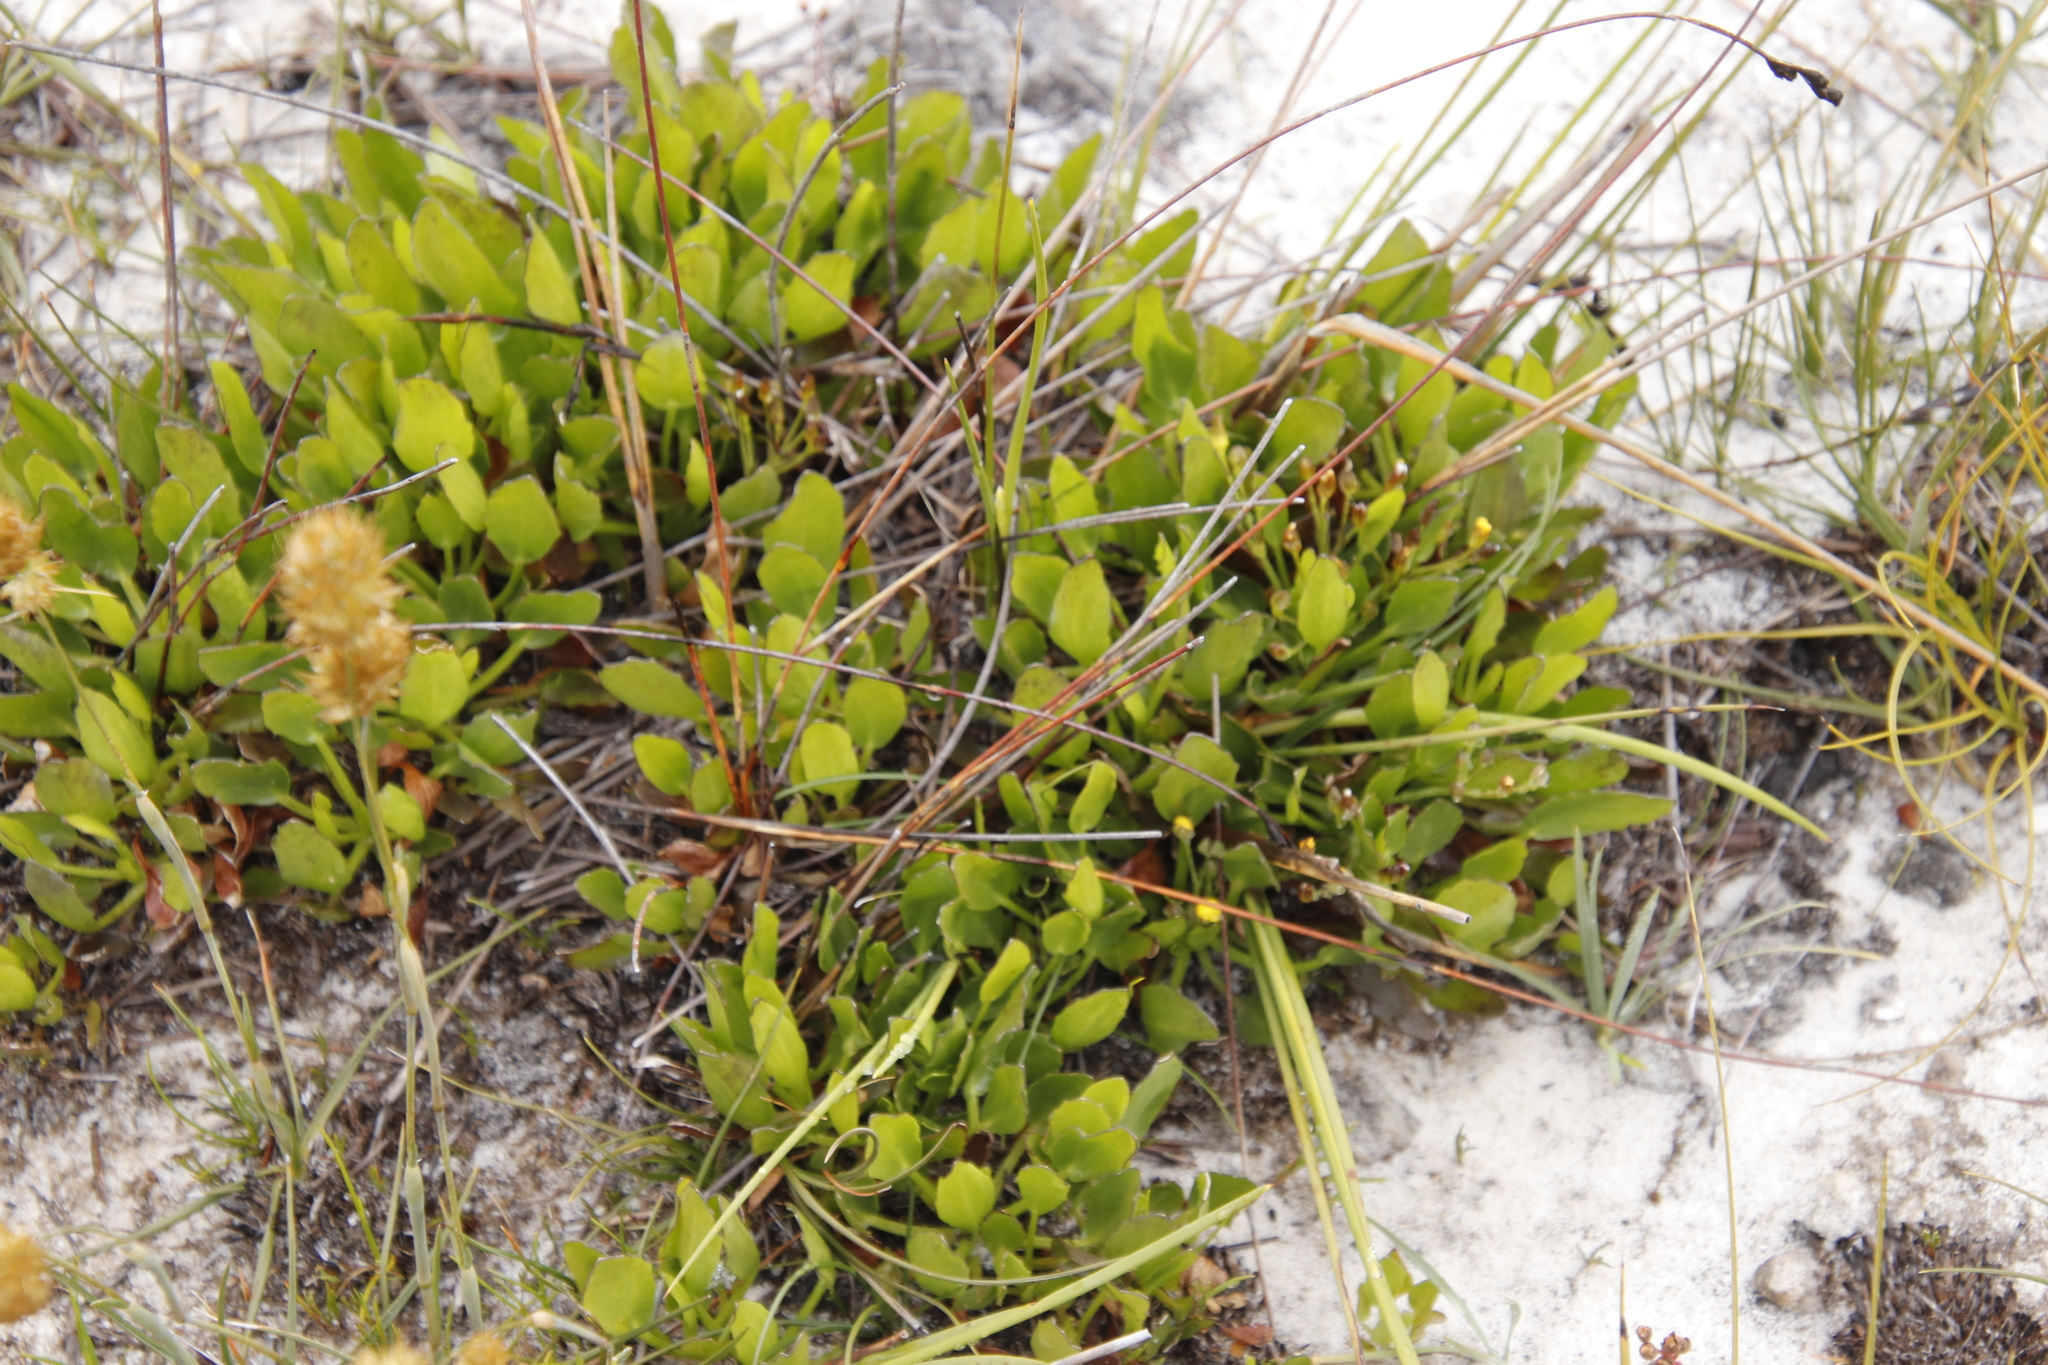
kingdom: Plantae
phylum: Tracheophyta
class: Magnoliopsida
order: Asterales
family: Menyanthaceae
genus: Villarsia
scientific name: Villarsia manningiana
